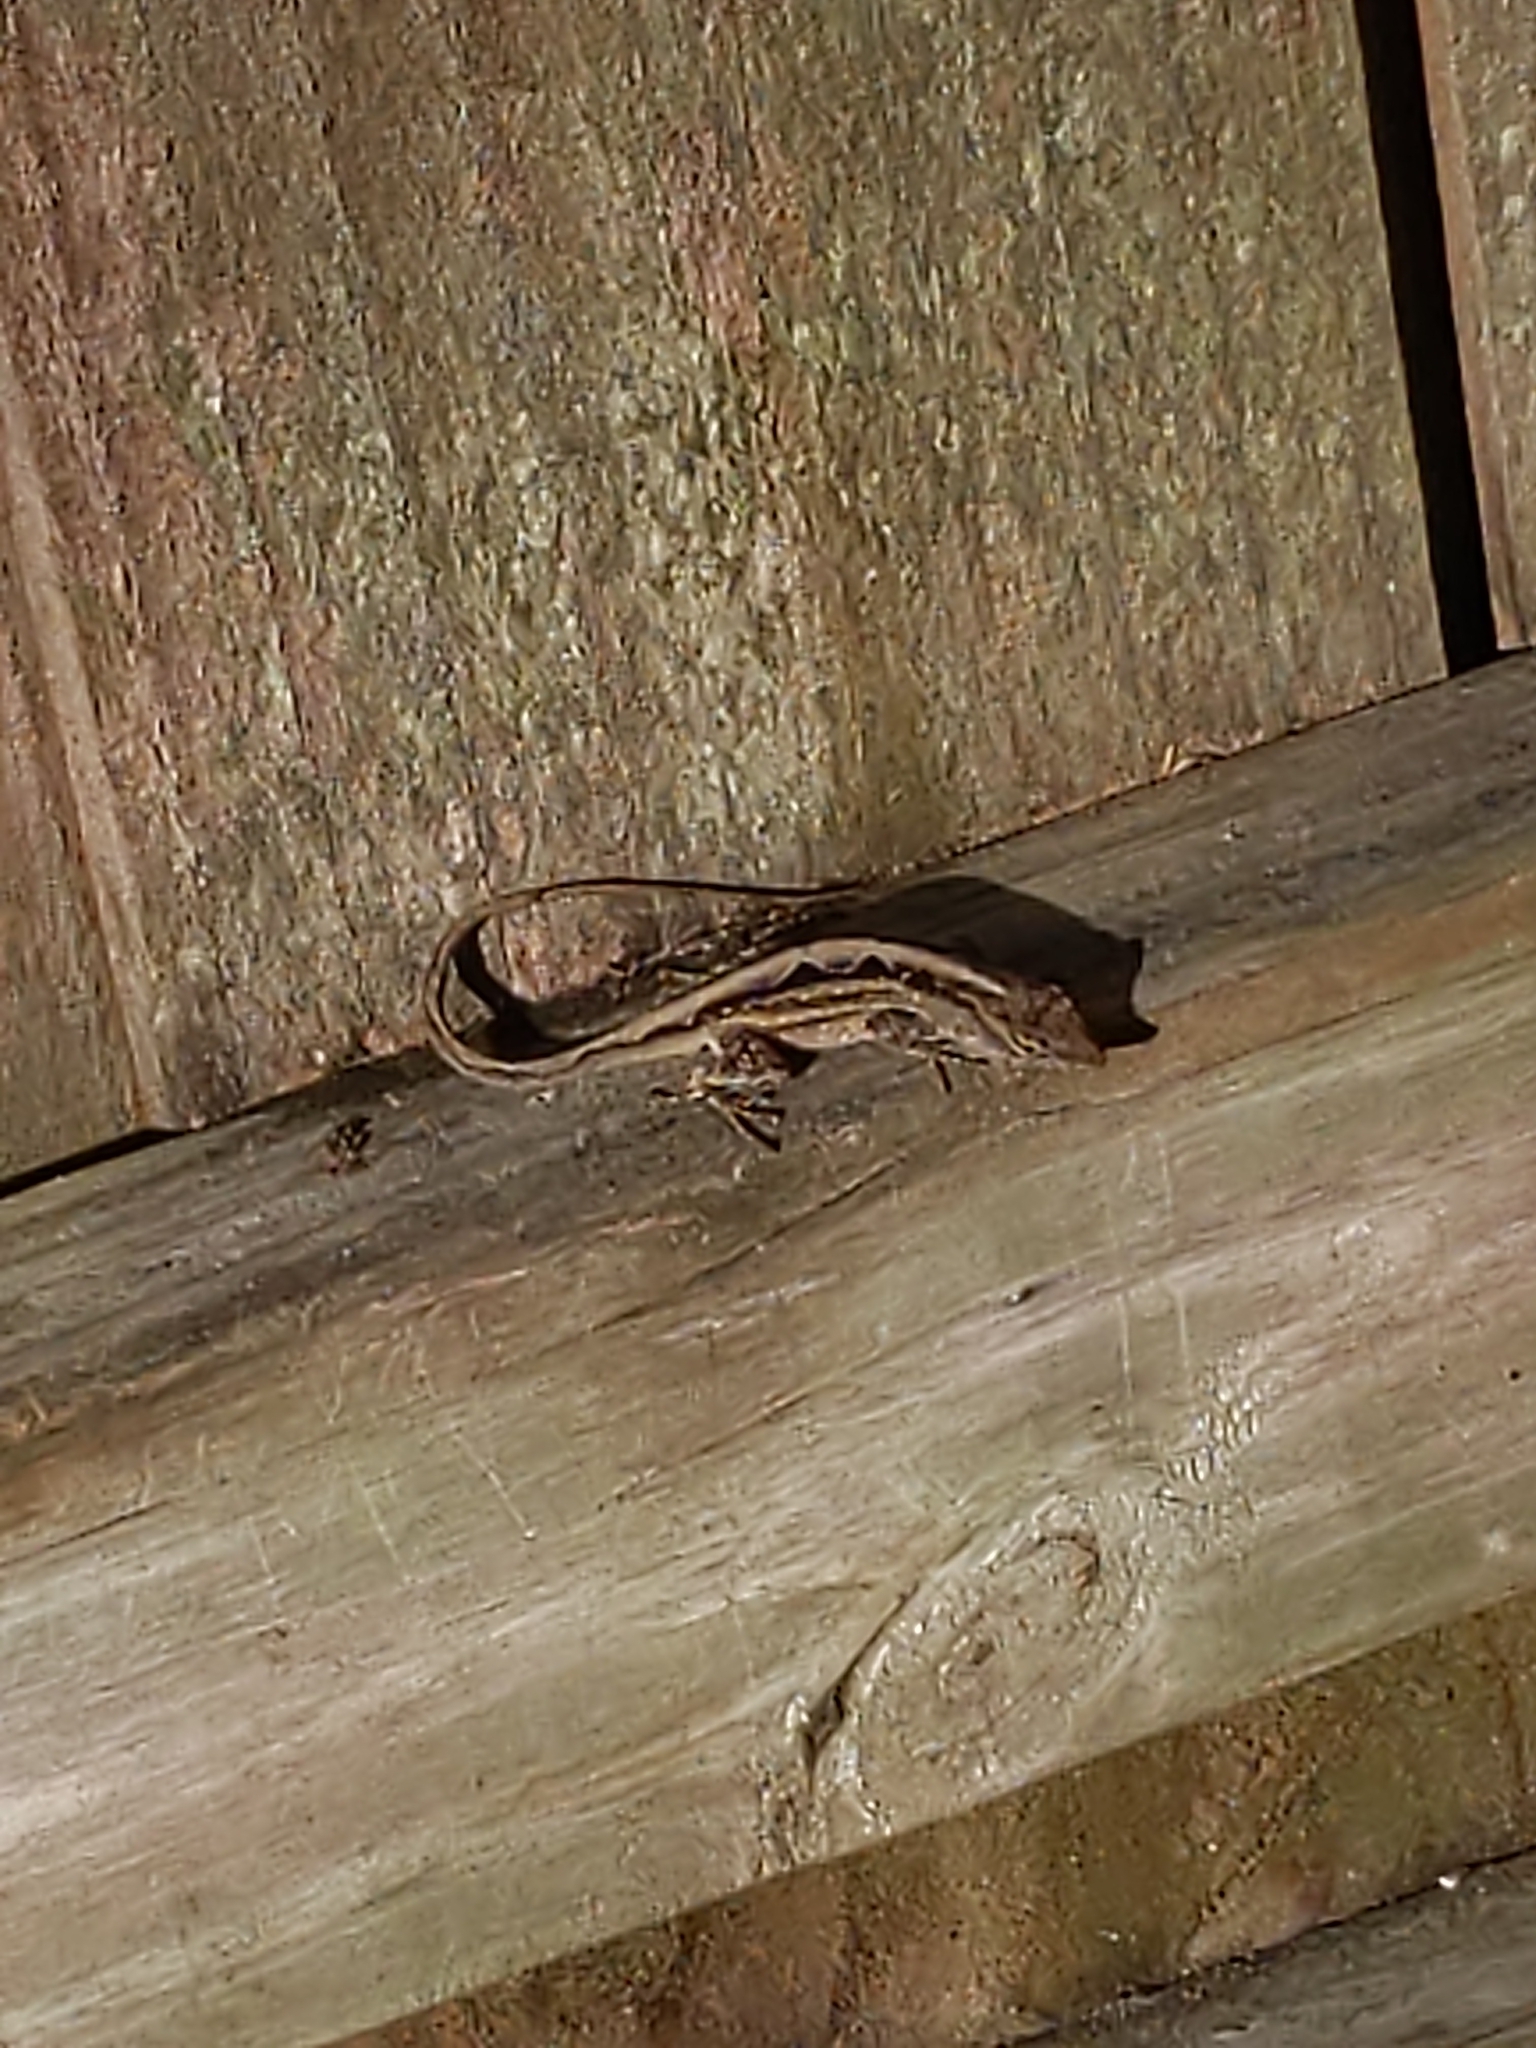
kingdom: Animalia
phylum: Chordata
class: Squamata
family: Dactyloidae
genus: Anolis
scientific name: Anolis sagrei
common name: Brown anole
